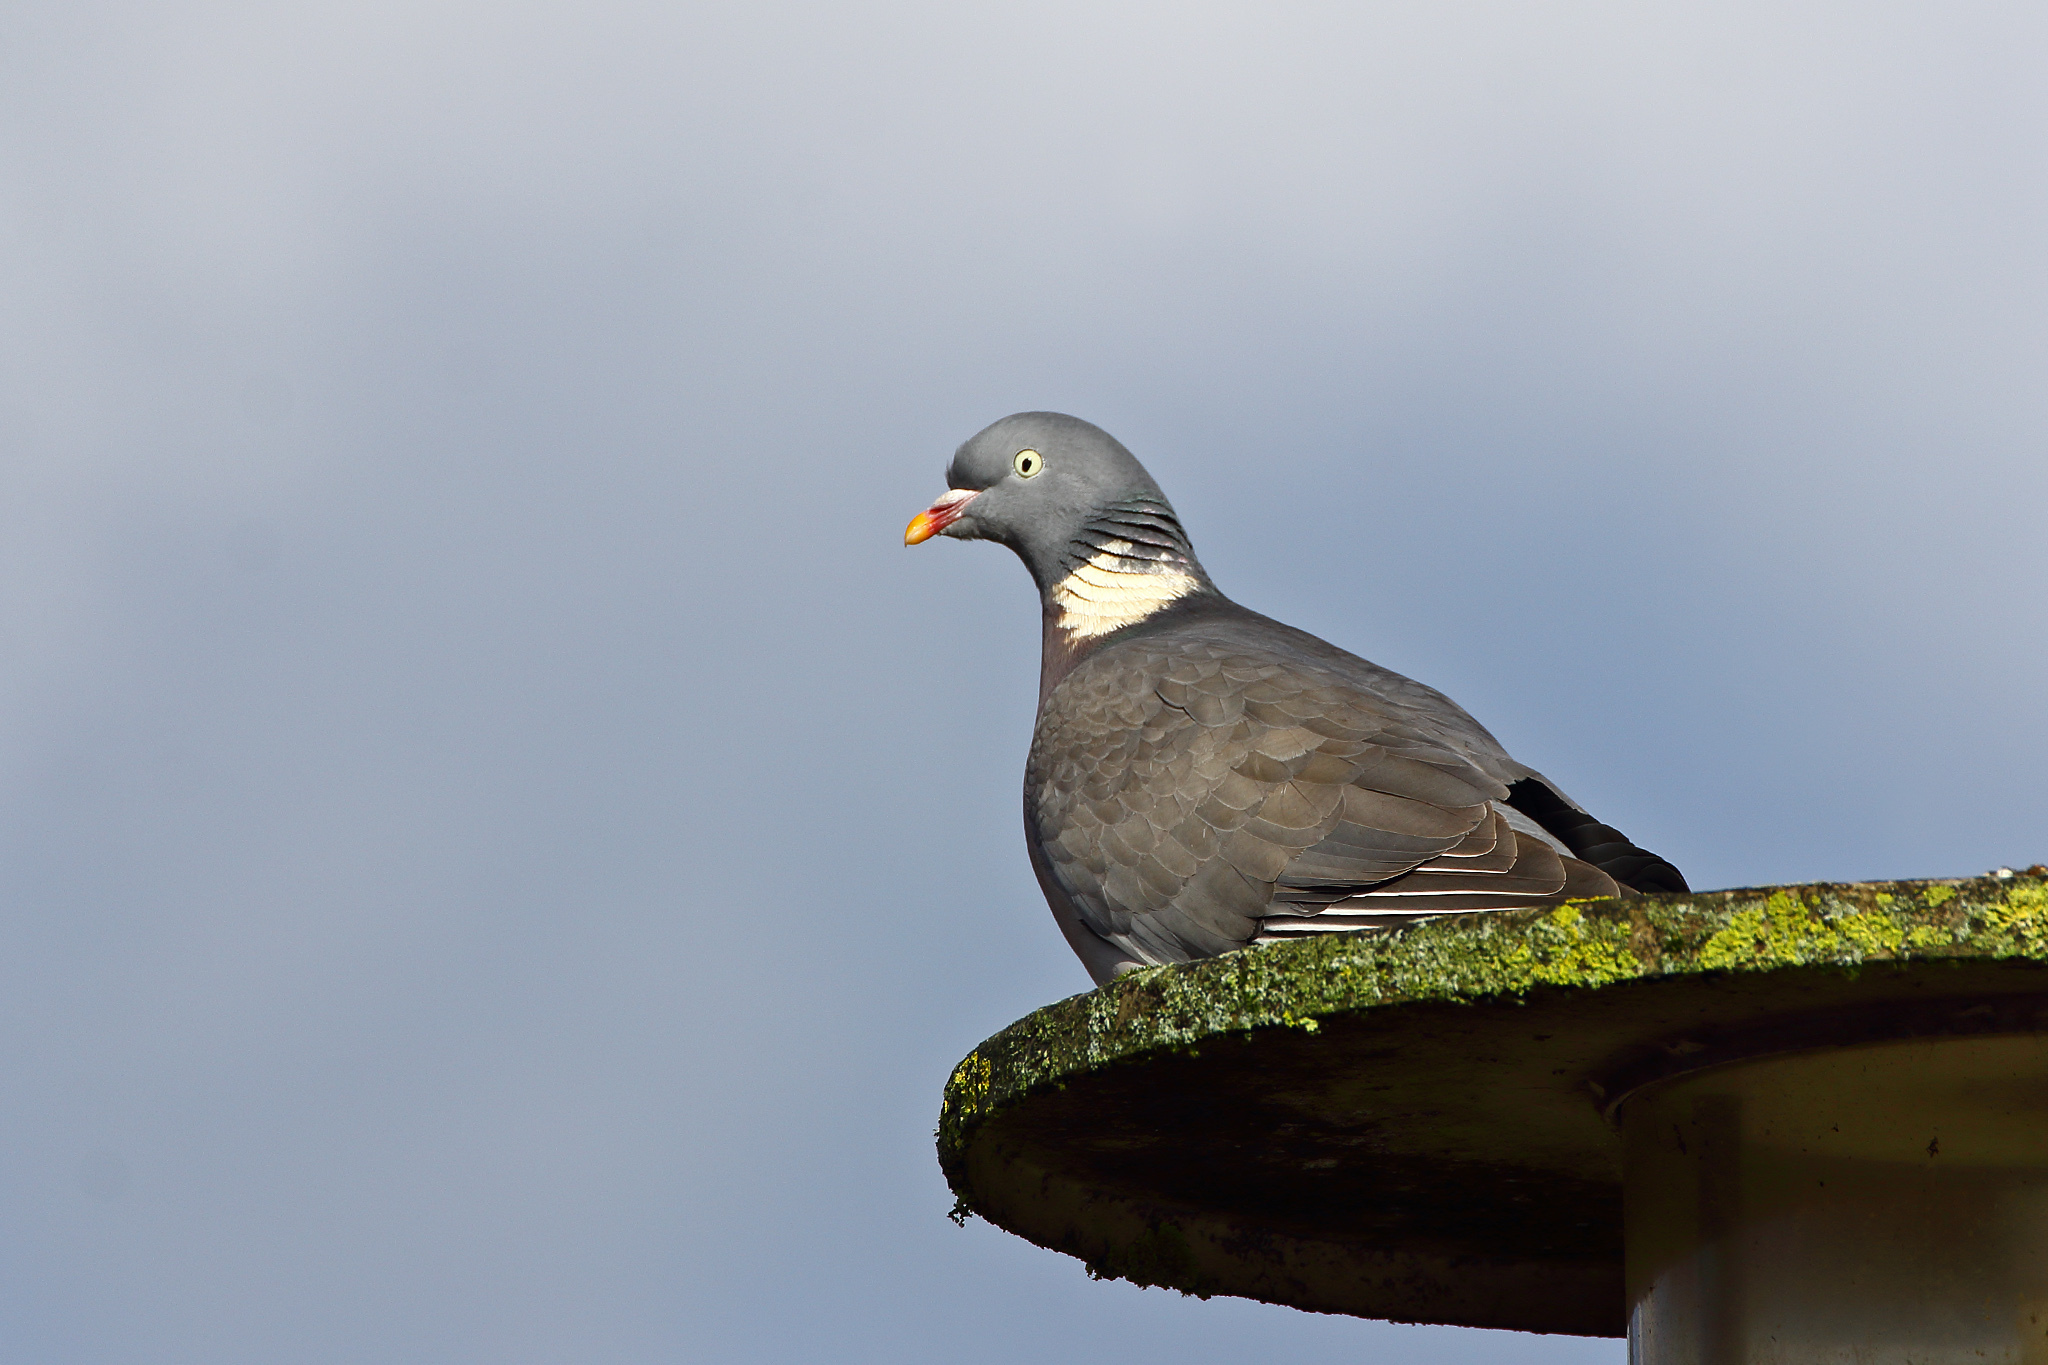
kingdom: Animalia
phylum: Chordata
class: Aves
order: Columbiformes
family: Columbidae
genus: Columba
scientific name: Columba palumbus
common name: Common wood pigeon
